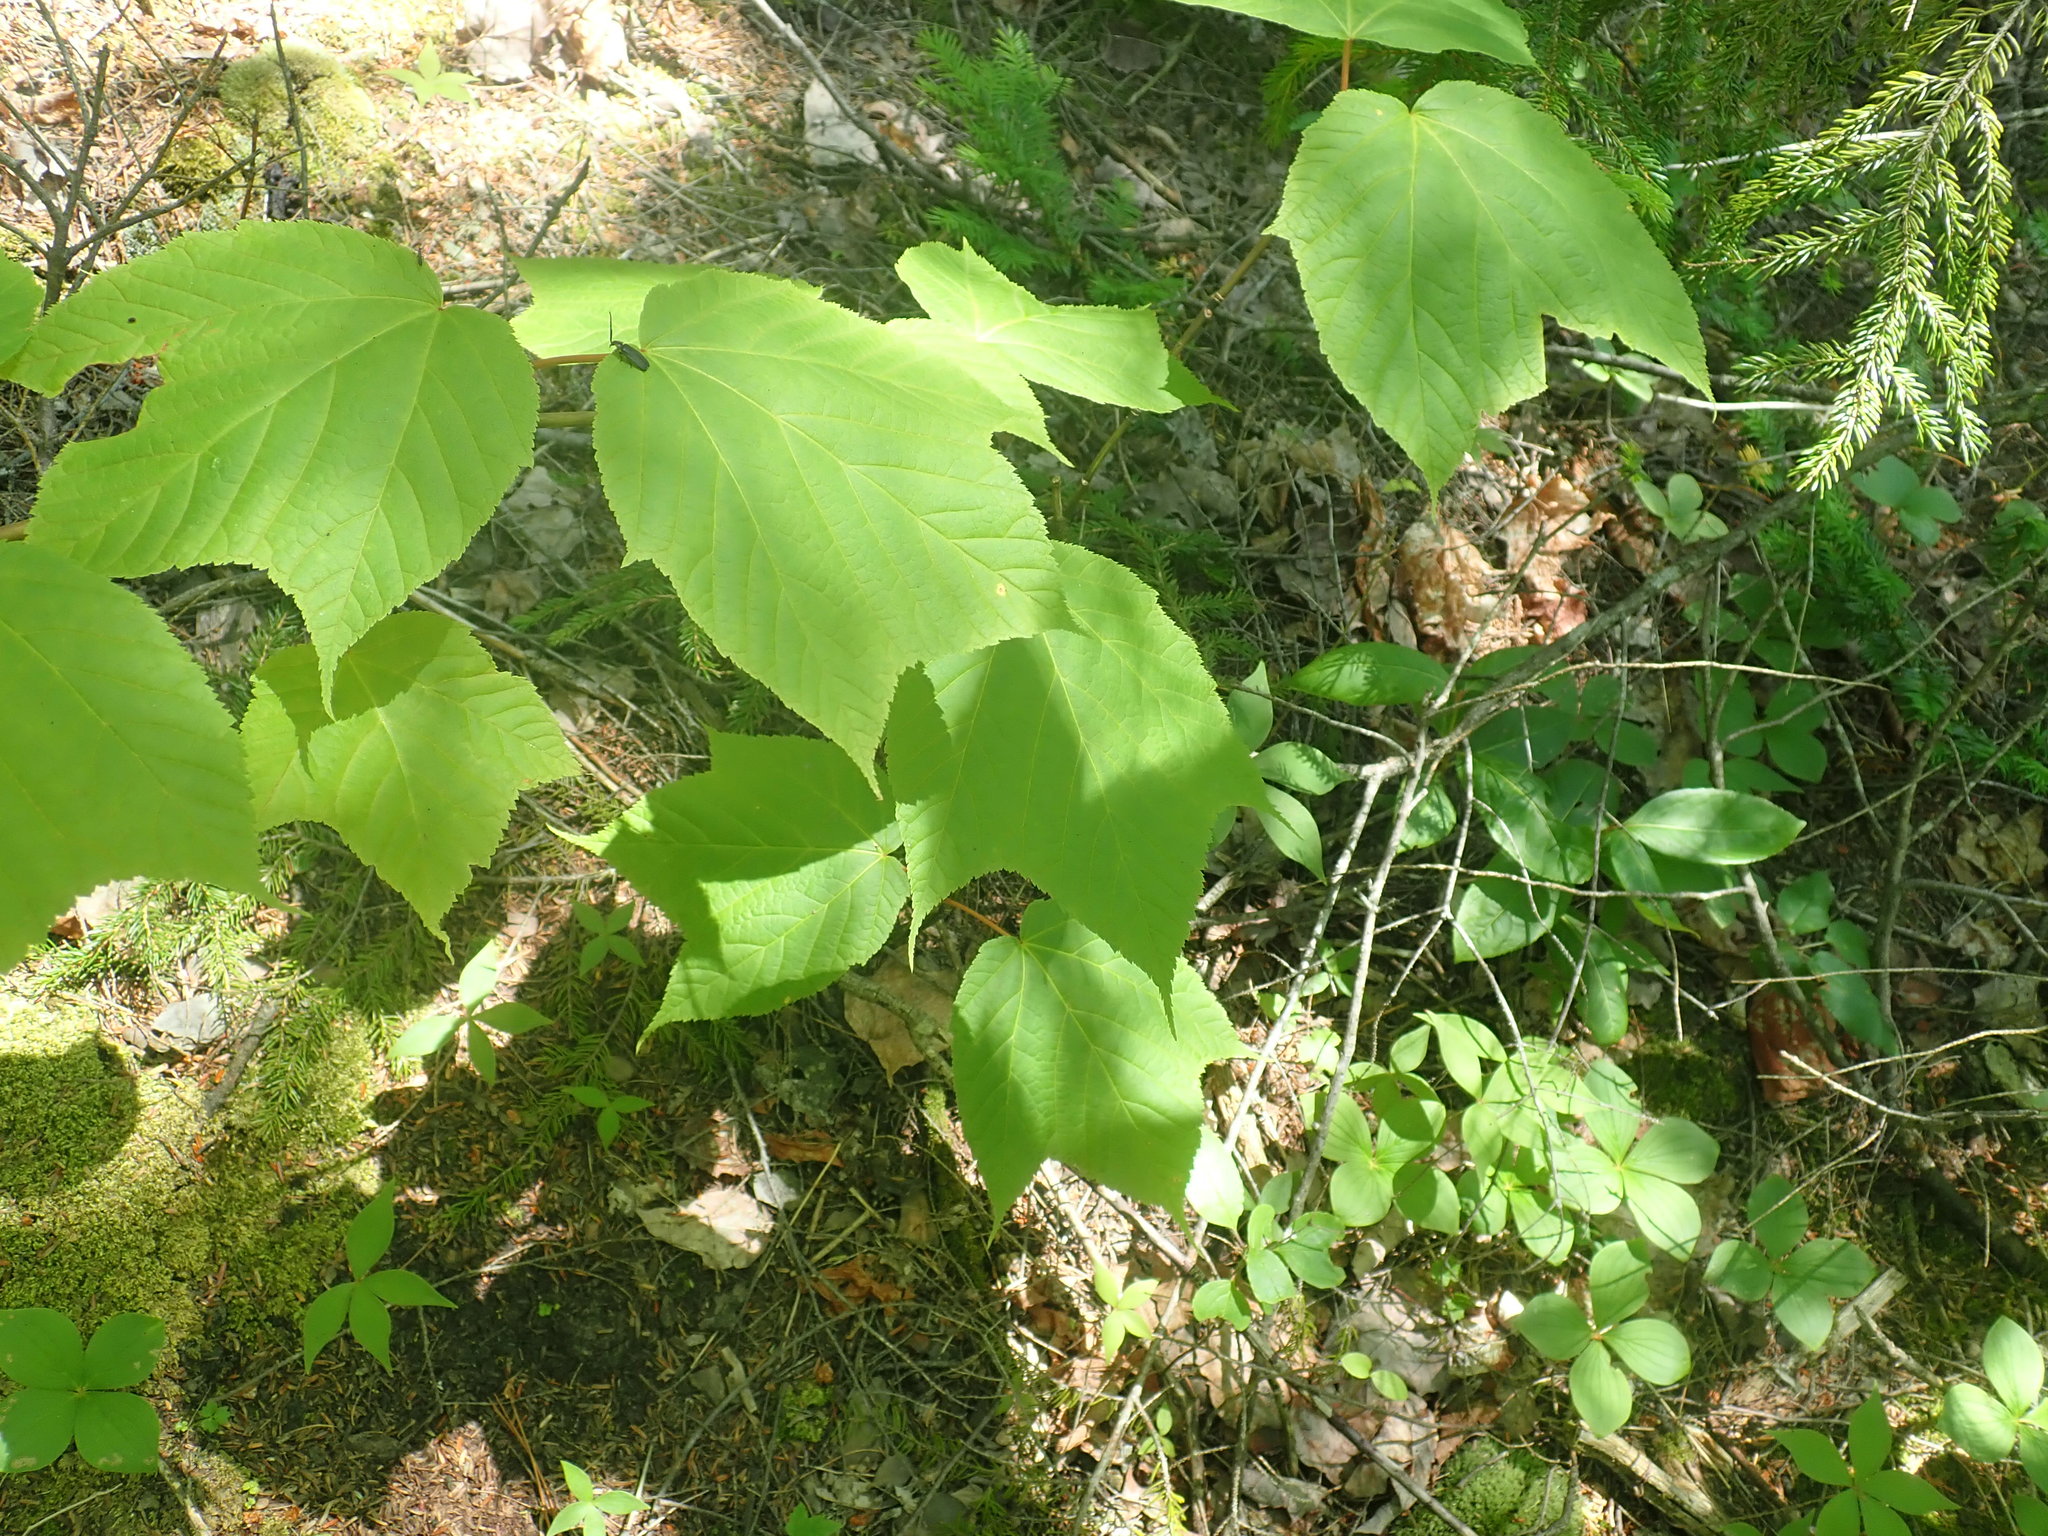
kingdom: Plantae
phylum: Tracheophyta
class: Magnoliopsida
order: Sapindales
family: Sapindaceae
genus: Acer
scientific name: Acer pensylvanicum
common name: Moosewood
